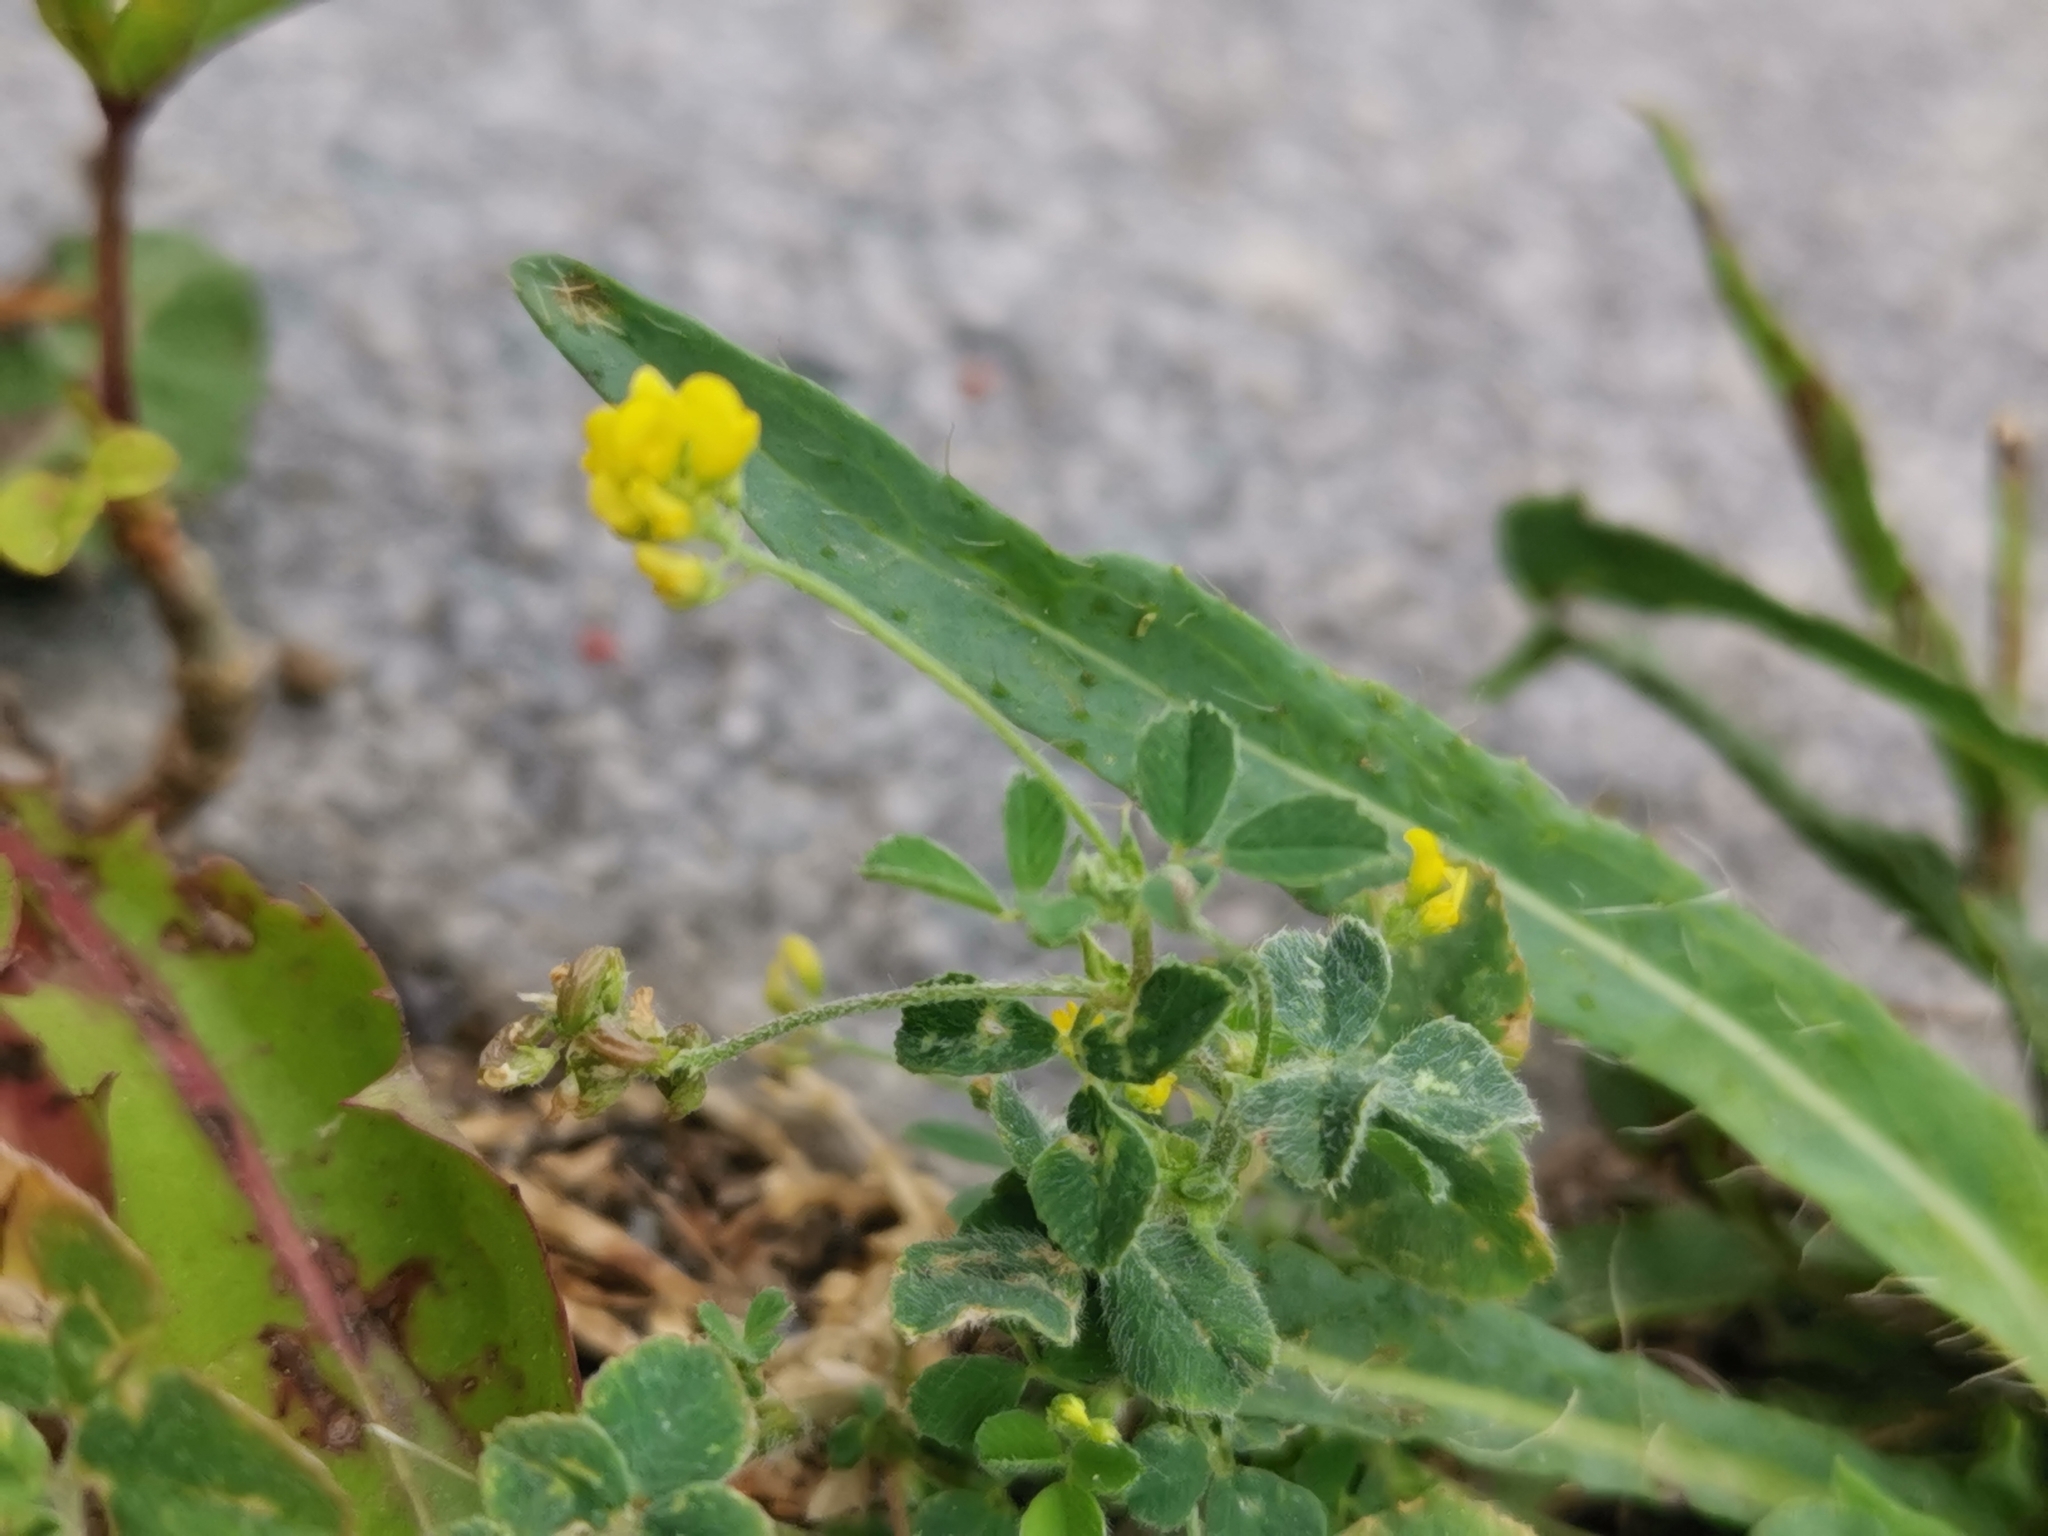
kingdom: Plantae
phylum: Tracheophyta
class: Magnoliopsida
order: Fabales
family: Fabaceae
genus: Medicago
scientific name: Medicago lupulina
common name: Black medick
